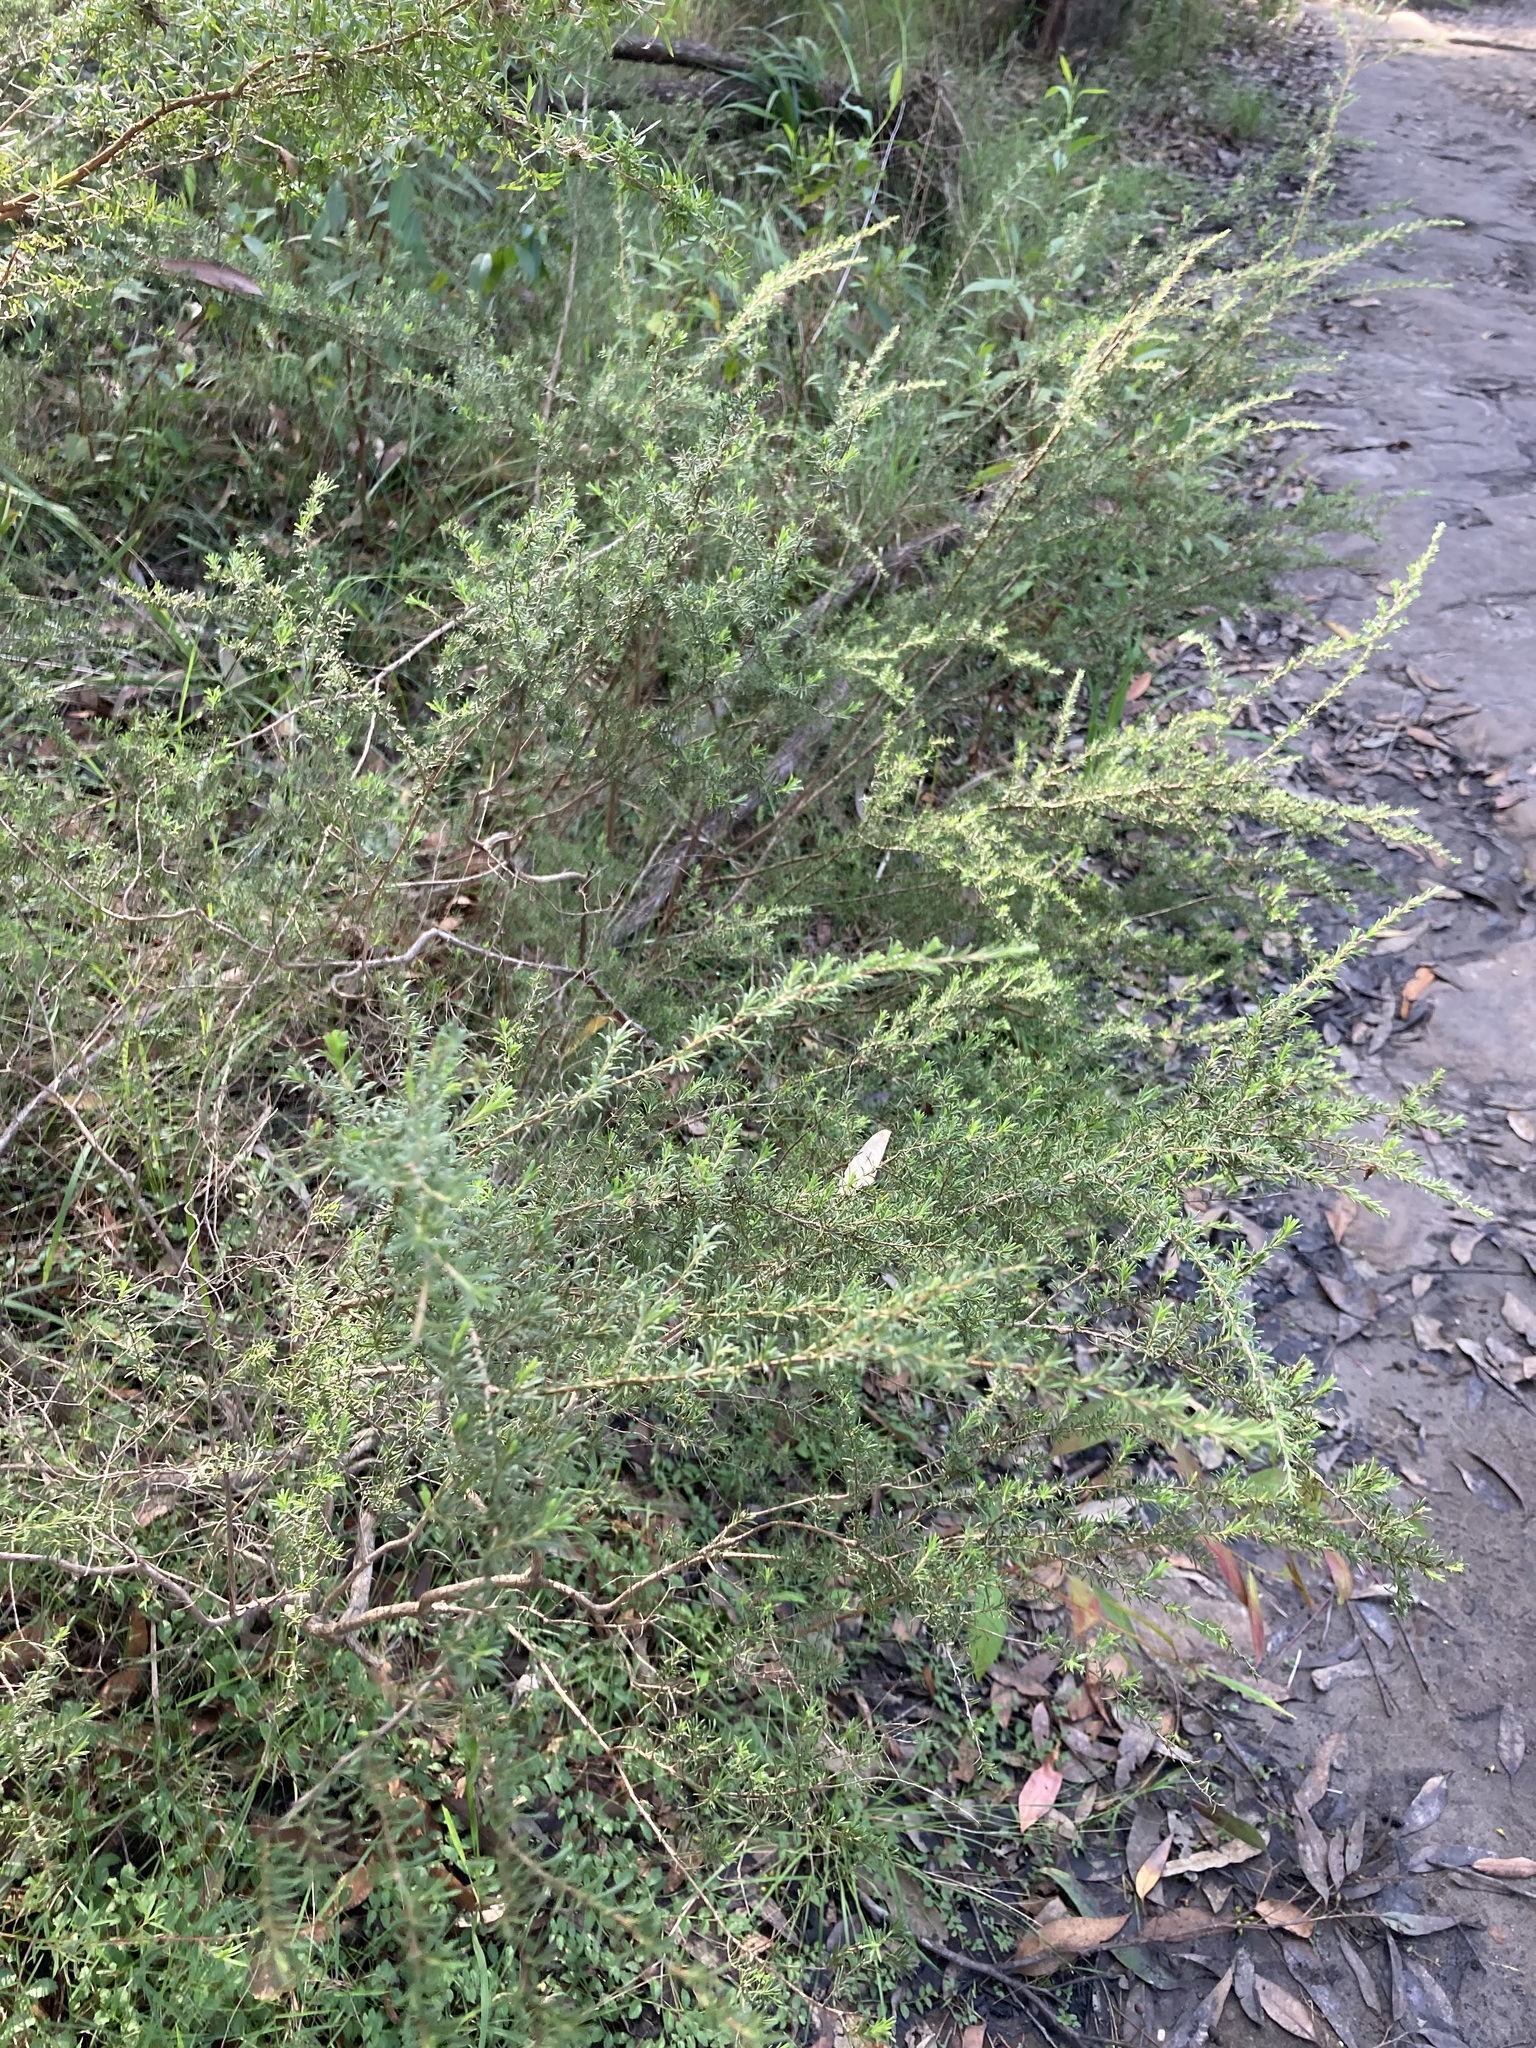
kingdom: Plantae
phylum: Tracheophyta
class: Magnoliopsida
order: Myrtales
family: Myrtaceae
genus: Kunzea
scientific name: Kunzea ambigua
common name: Tickbush
